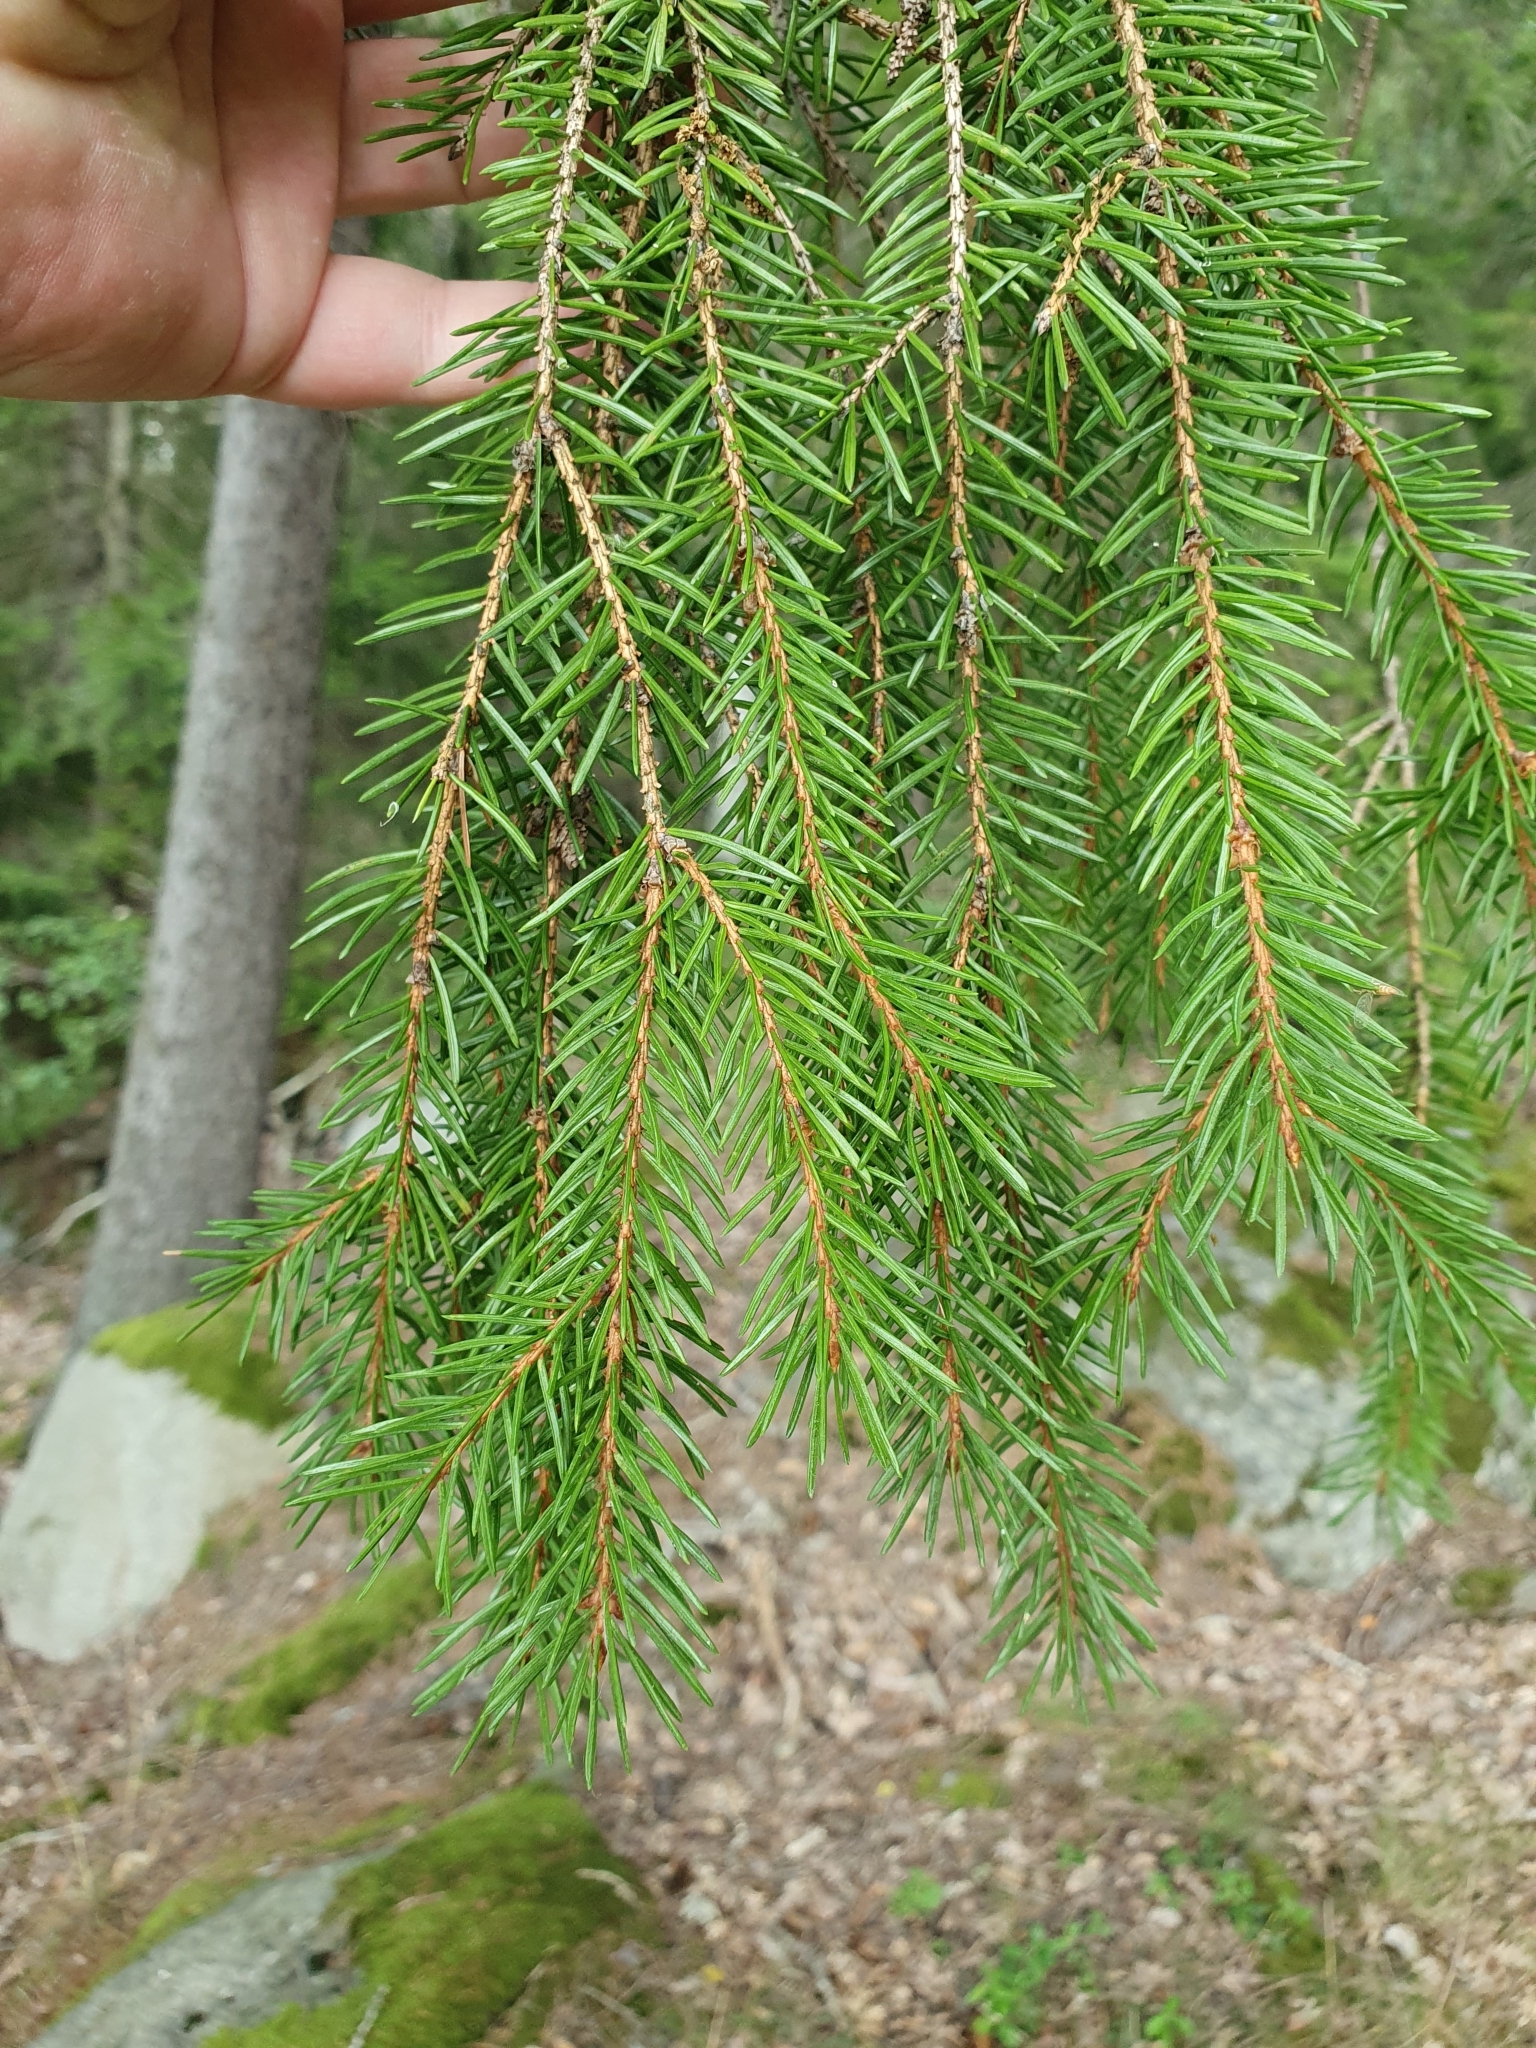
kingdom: Plantae
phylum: Tracheophyta
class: Pinopsida
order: Pinales
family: Pinaceae
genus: Picea
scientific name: Picea abies
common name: Norway spruce
